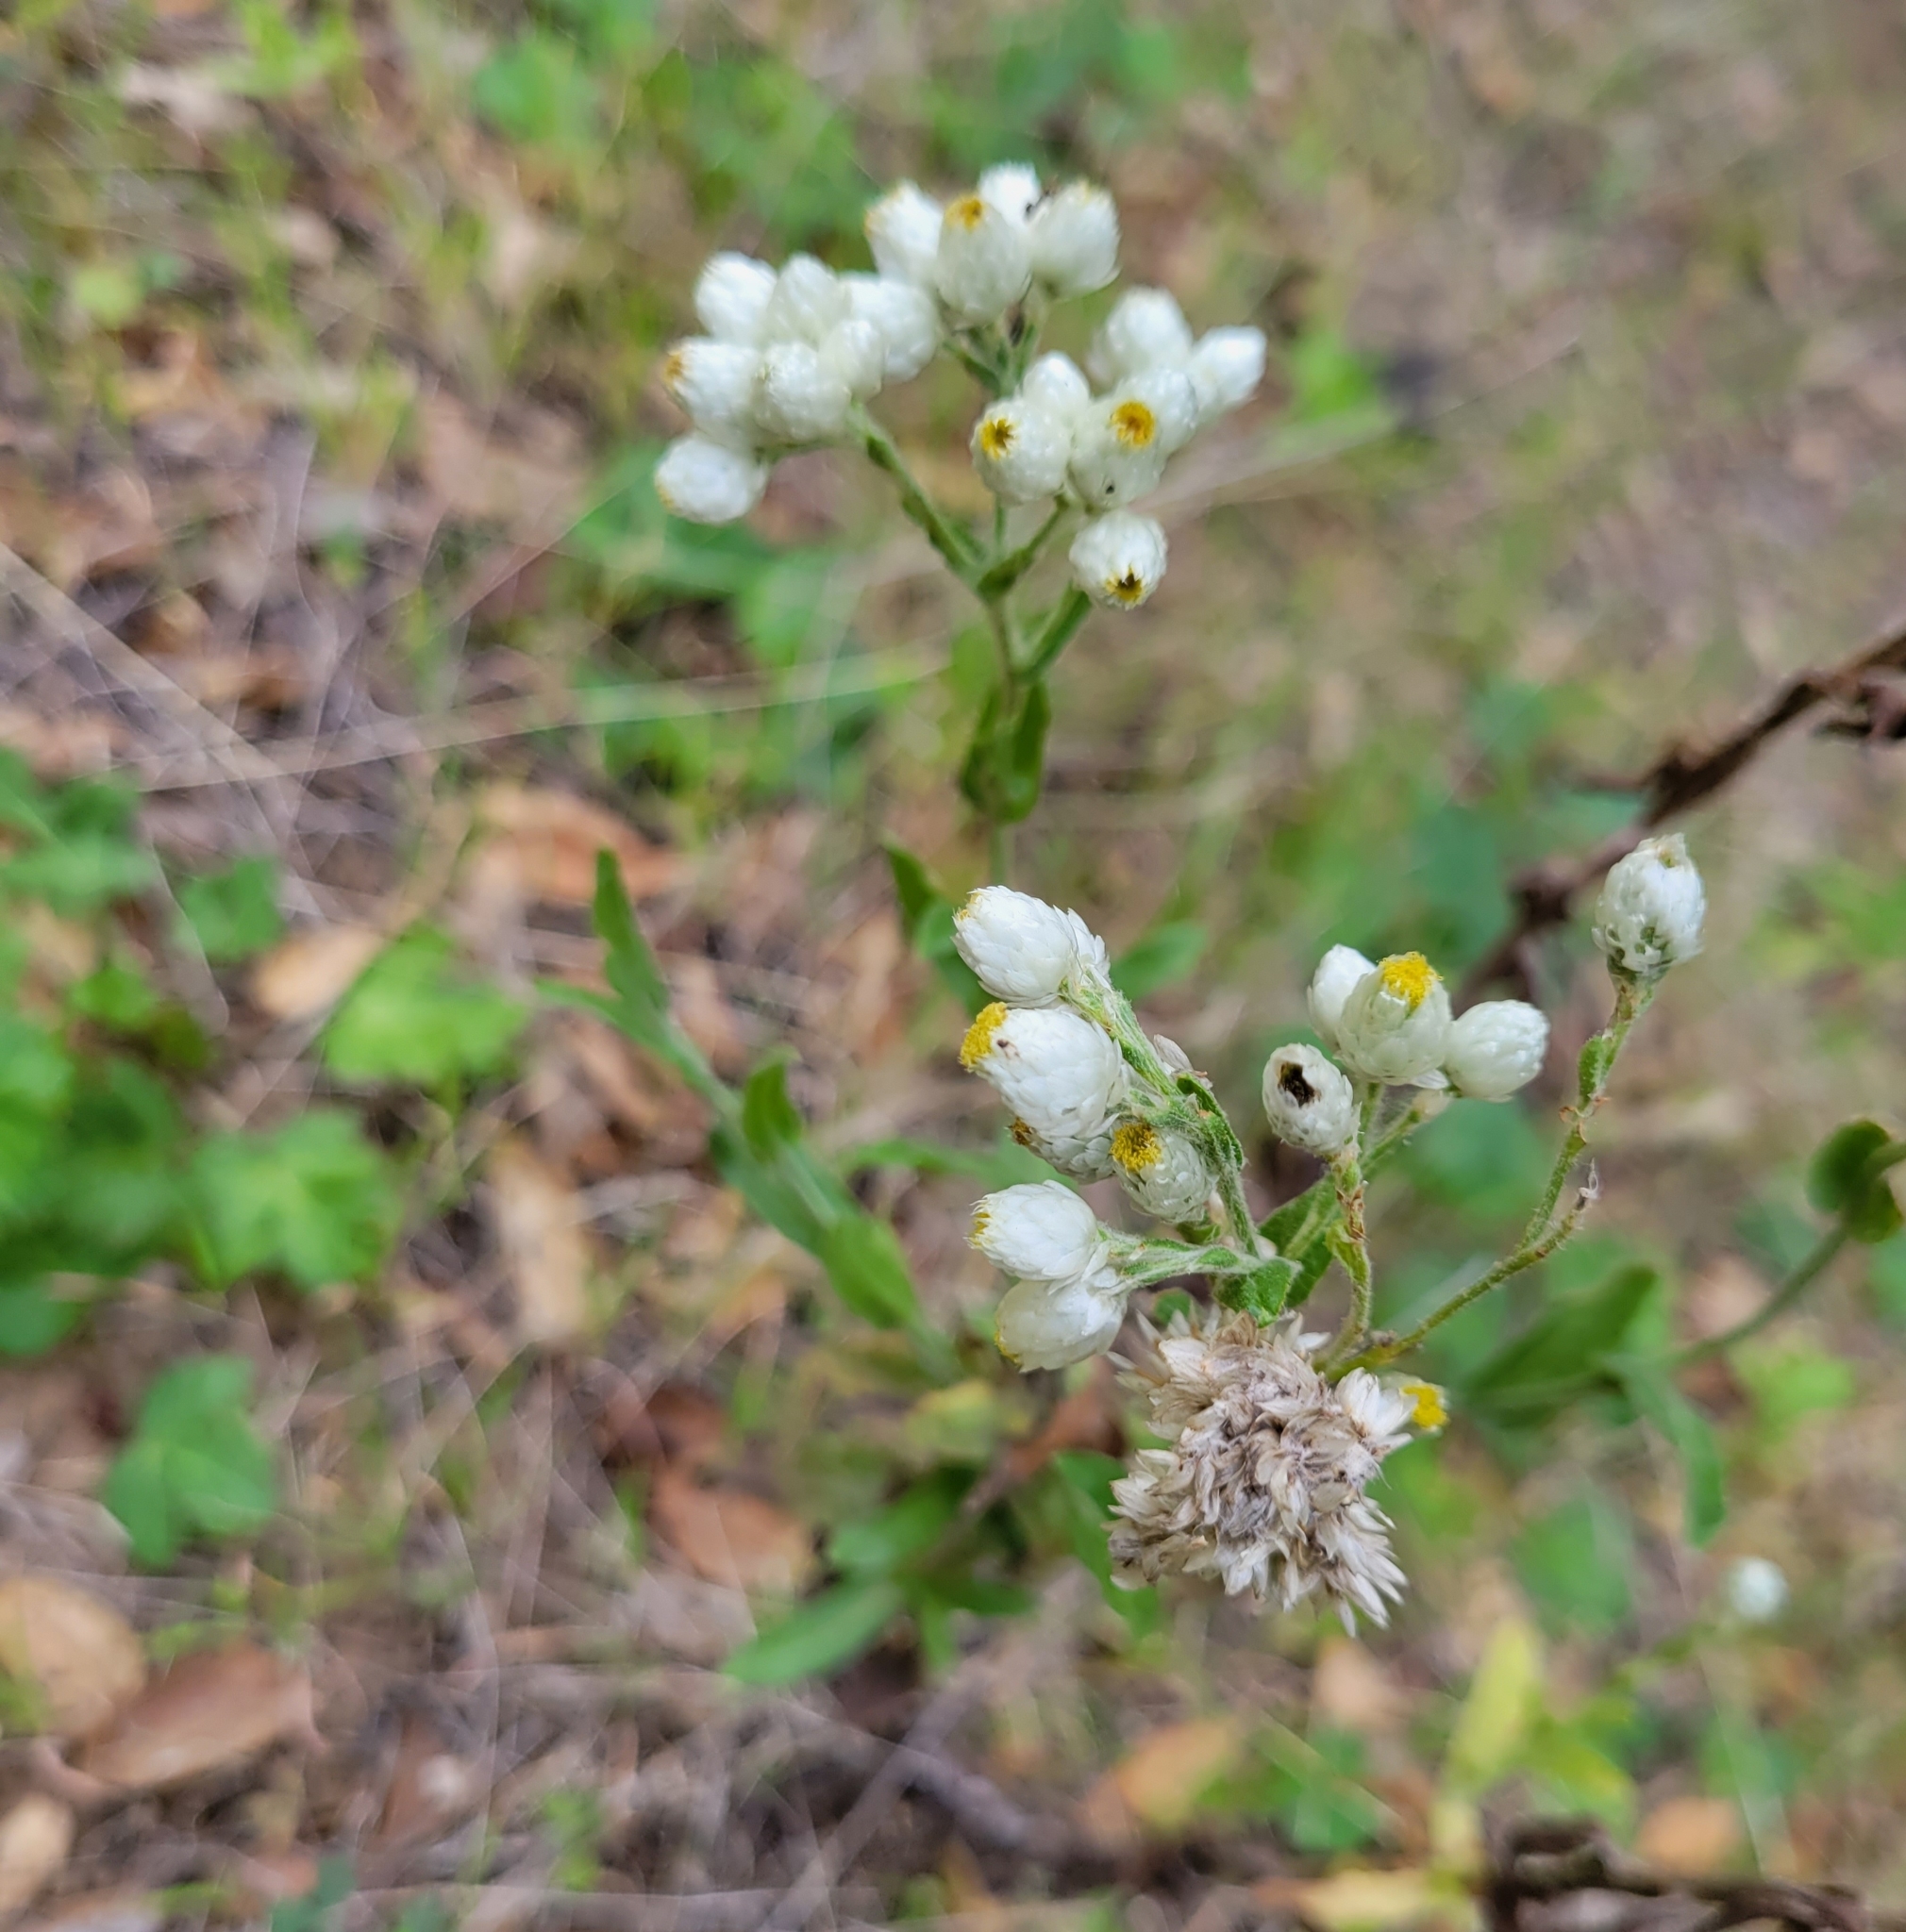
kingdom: Plantae
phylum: Tracheophyta
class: Magnoliopsida
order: Asterales
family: Asteraceae
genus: Pseudognaphalium
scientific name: Pseudognaphalium californicum
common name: California rabbit-tobacco
